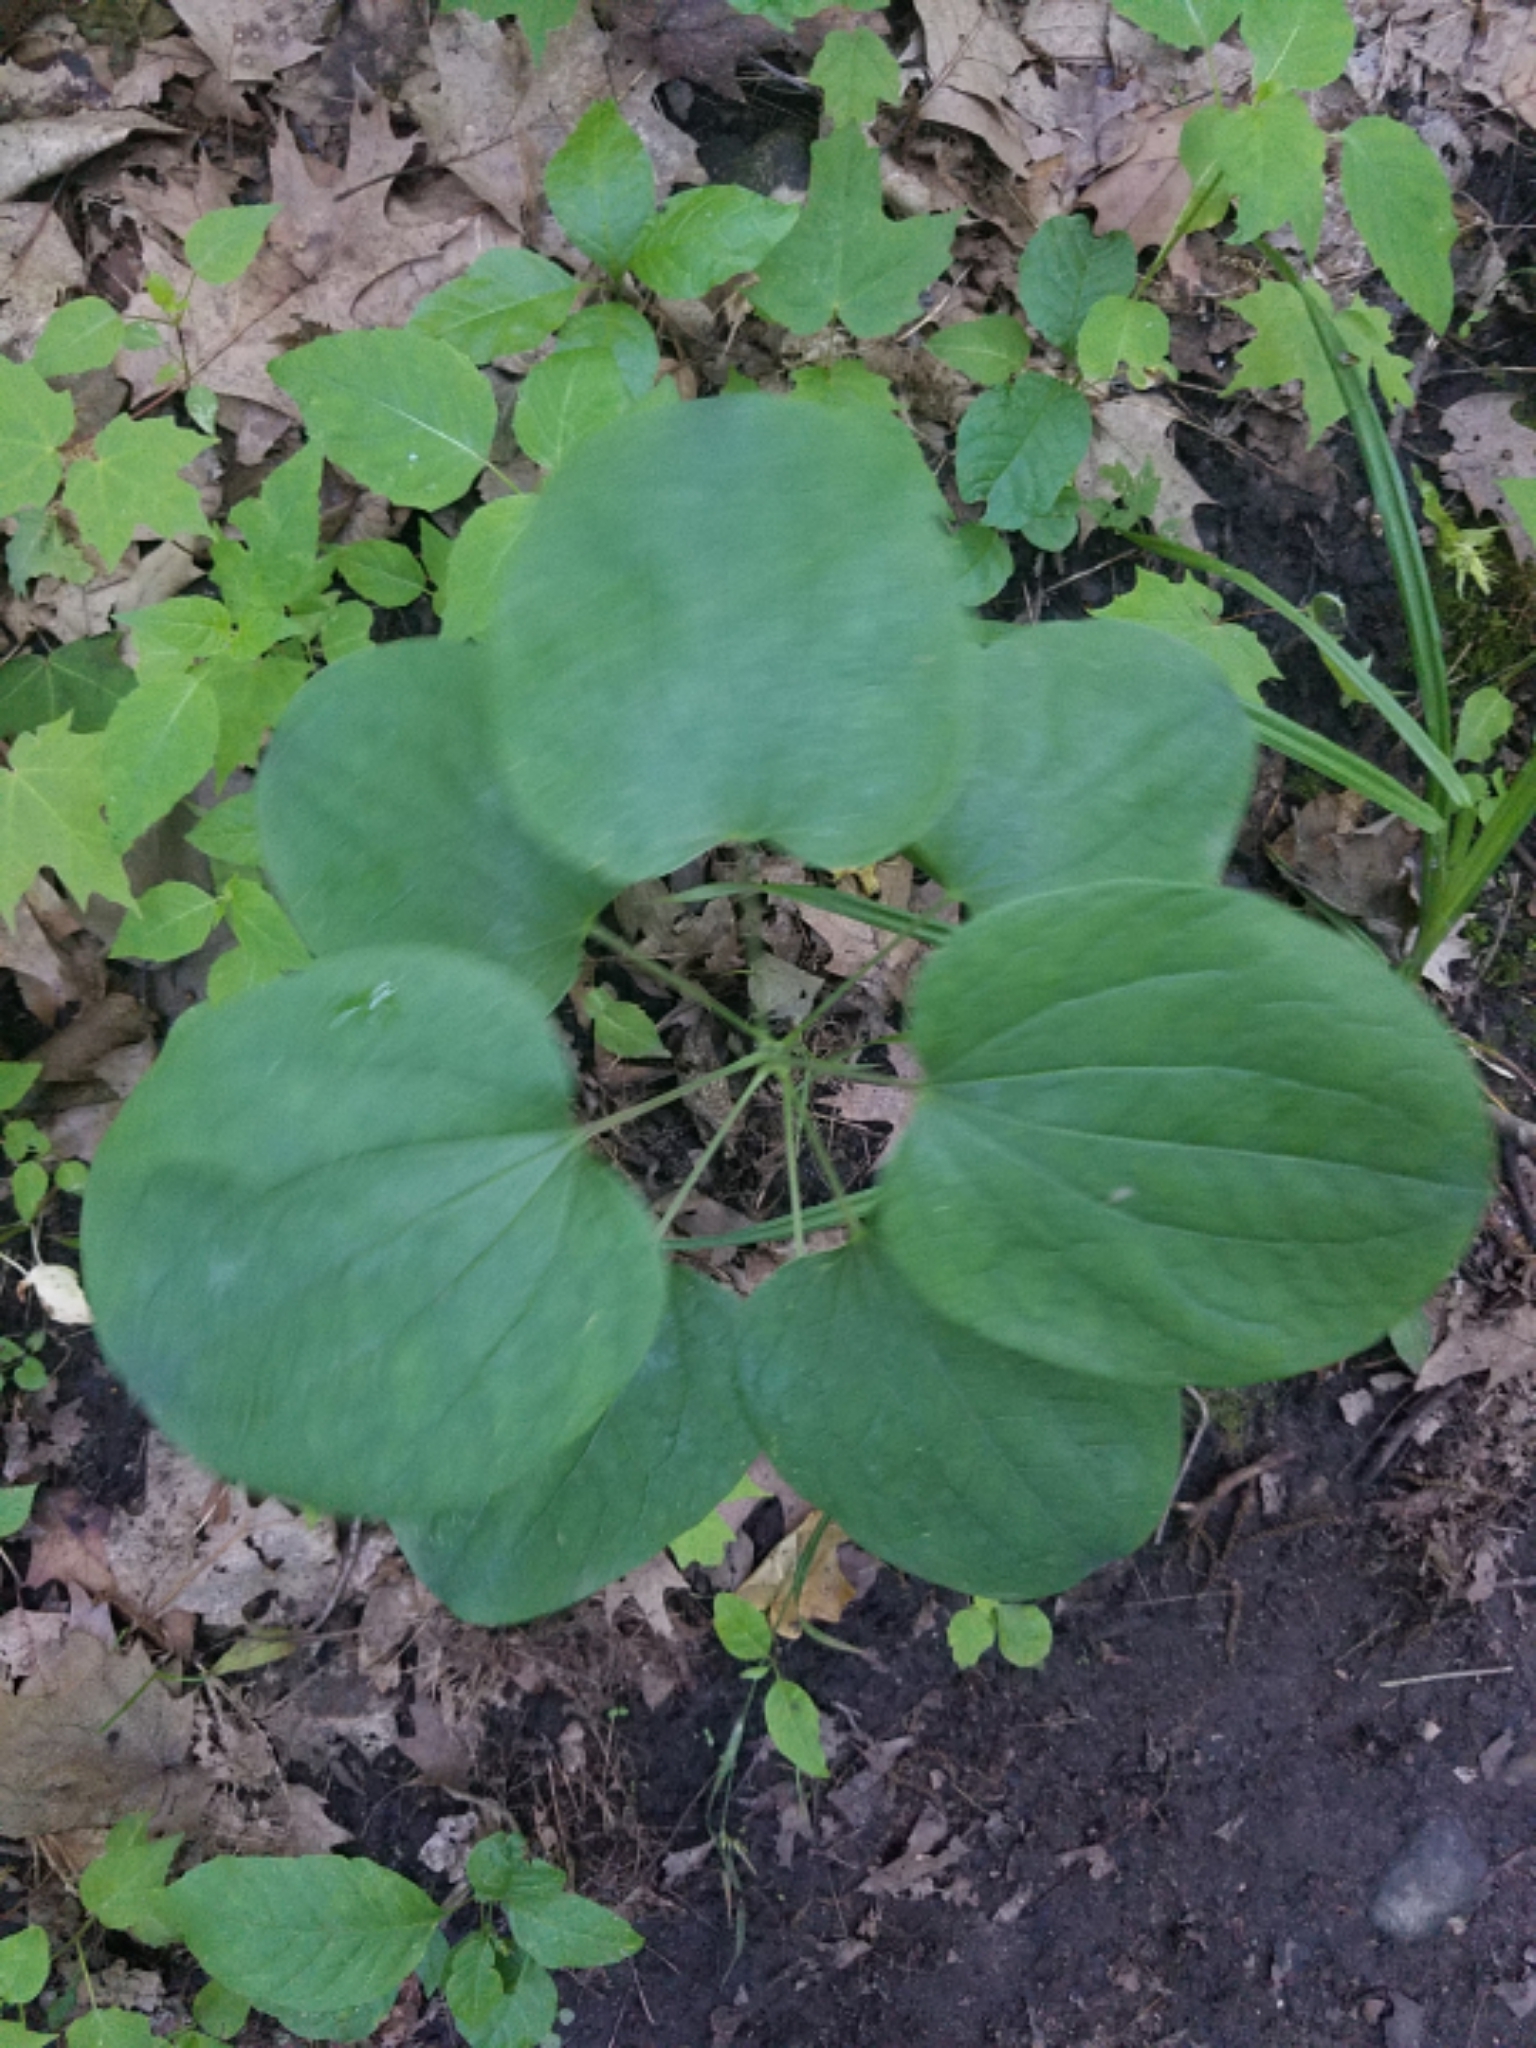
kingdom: Plantae
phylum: Tracheophyta
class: Liliopsida
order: Liliales
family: Smilacaceae
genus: Smilax
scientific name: Smilax ecirrhata
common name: Upright carrionflower
